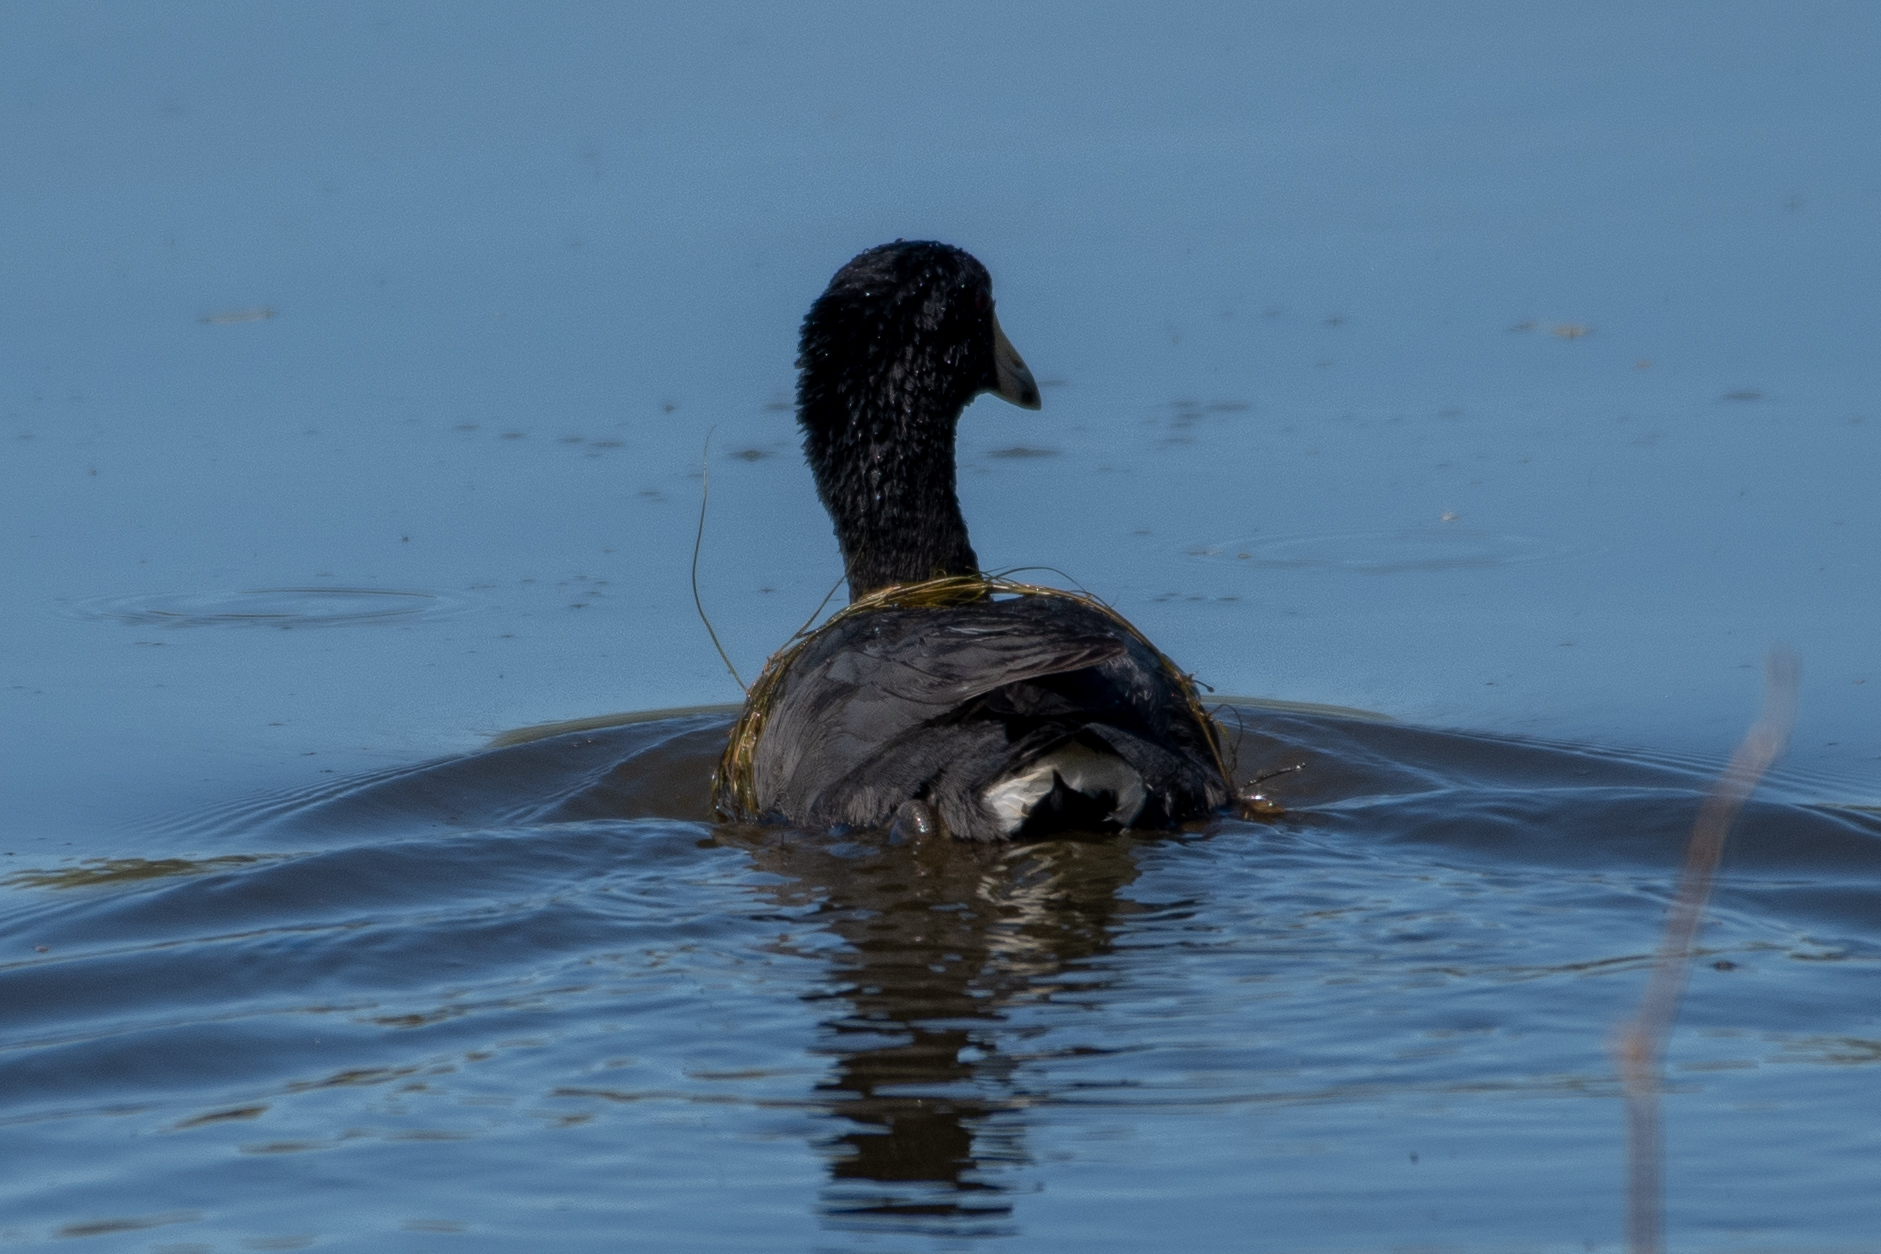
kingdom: Animalia
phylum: Chordata
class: Aves
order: Gruiformes
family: Rallidae
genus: Fulica
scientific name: Fulica americana
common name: American coot
